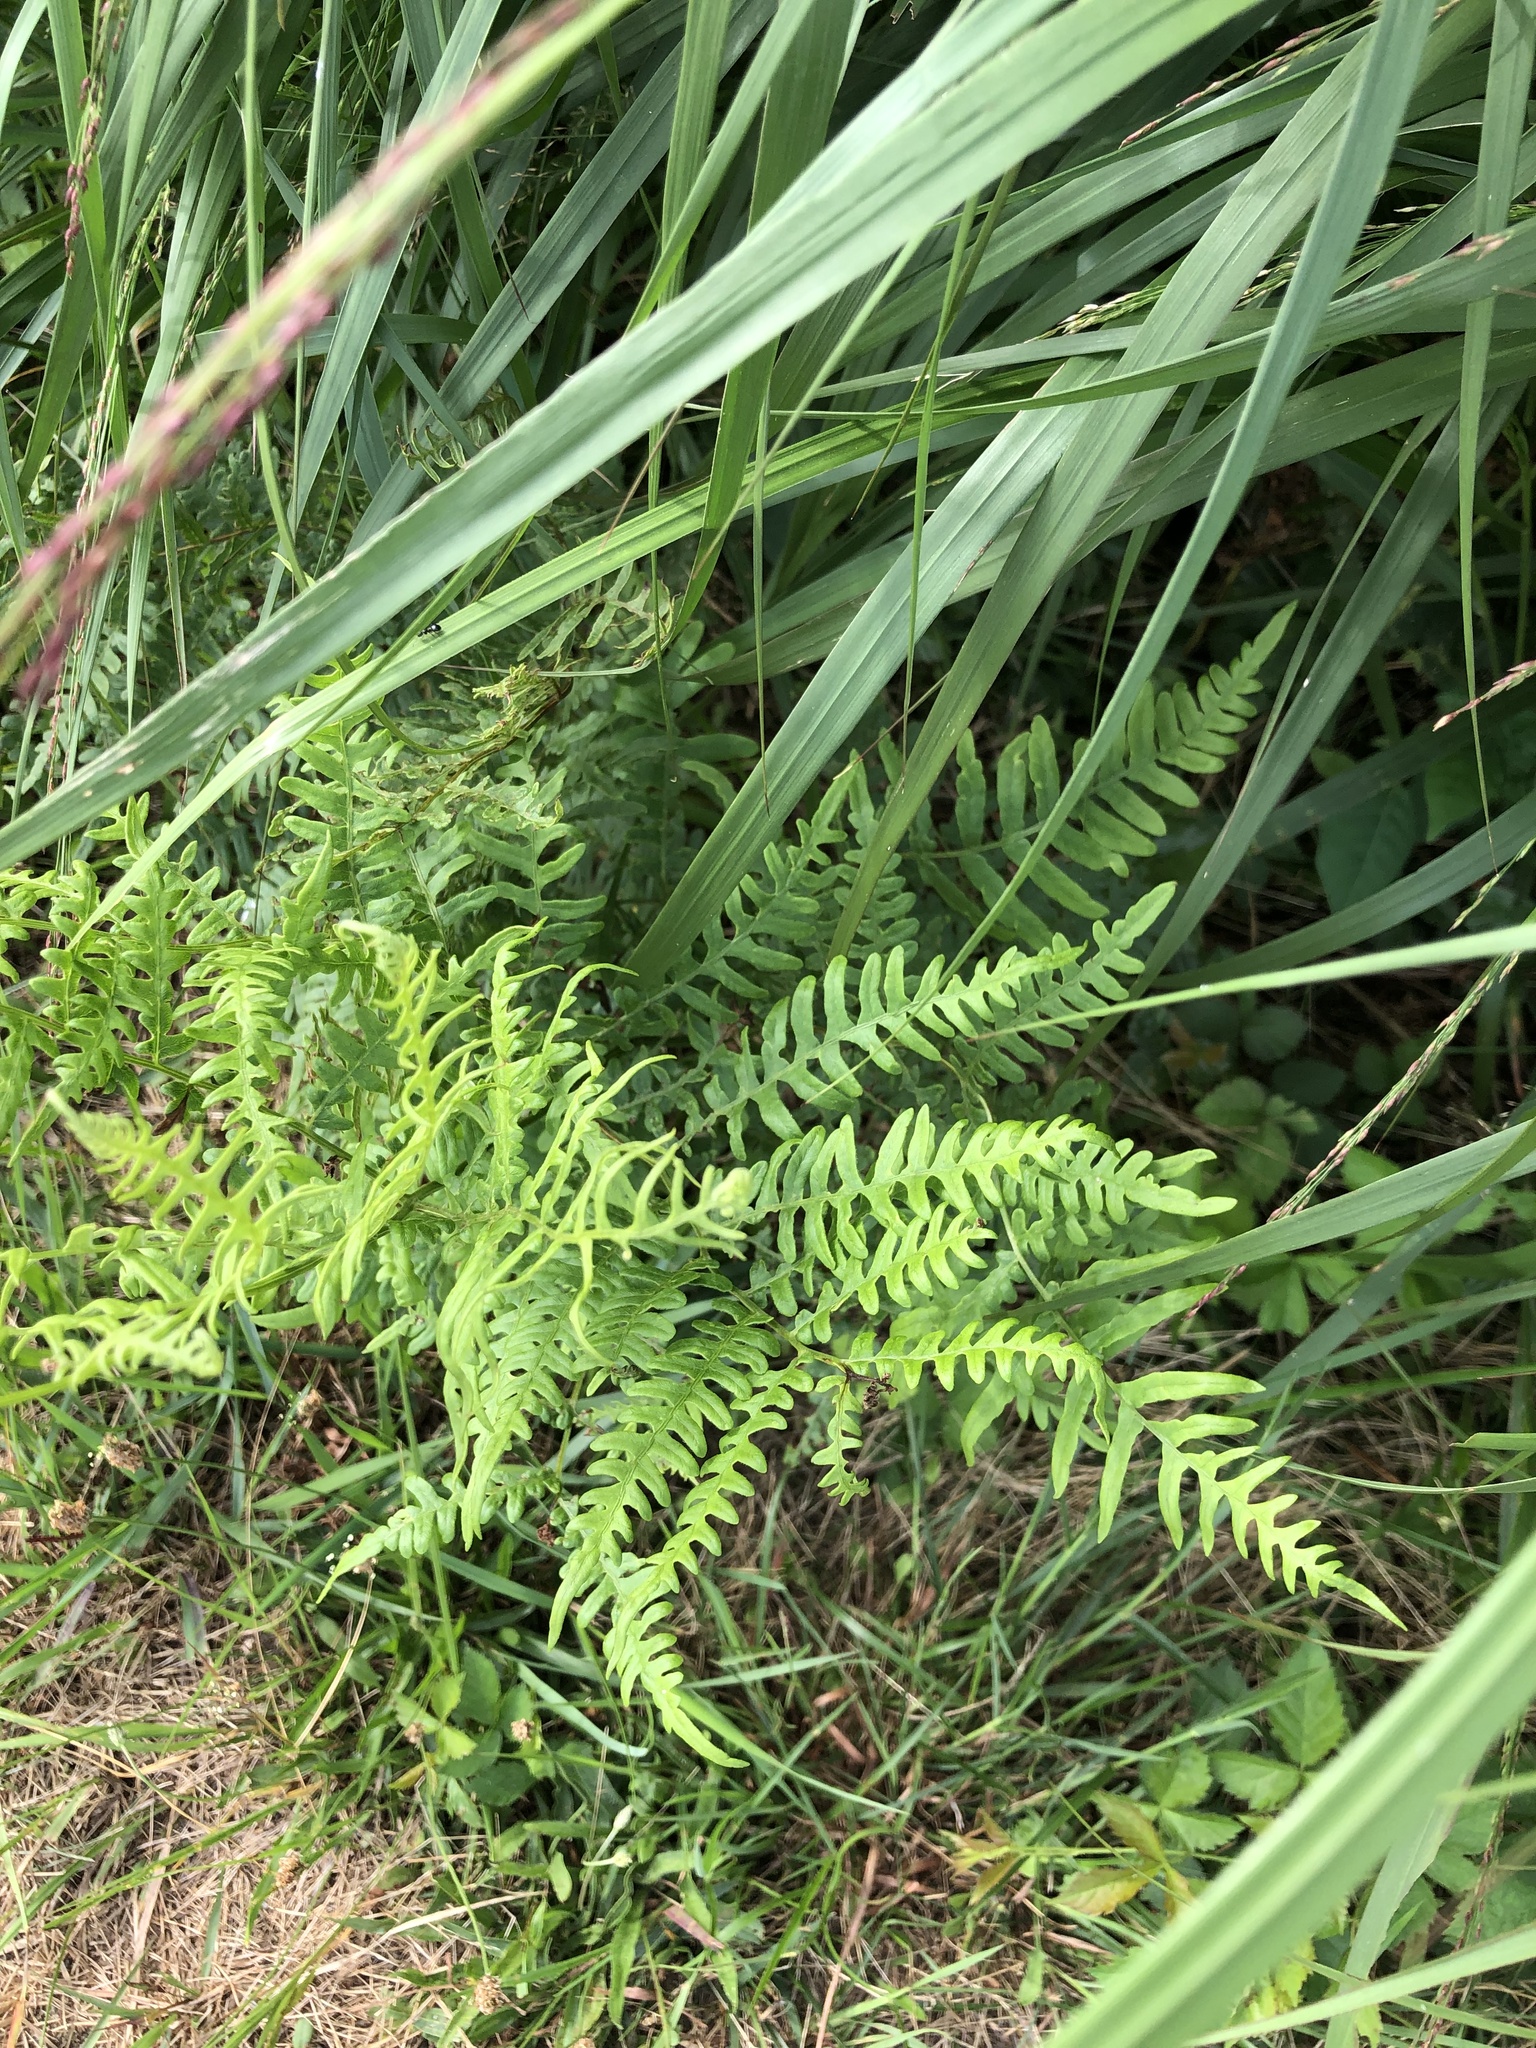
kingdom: Plantae
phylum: Tracheophyta
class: Polypodiopsida
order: Polypodiales
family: Dennstaedtiaceae
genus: Pteridium
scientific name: Pteridium aquilinum
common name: Bracken
